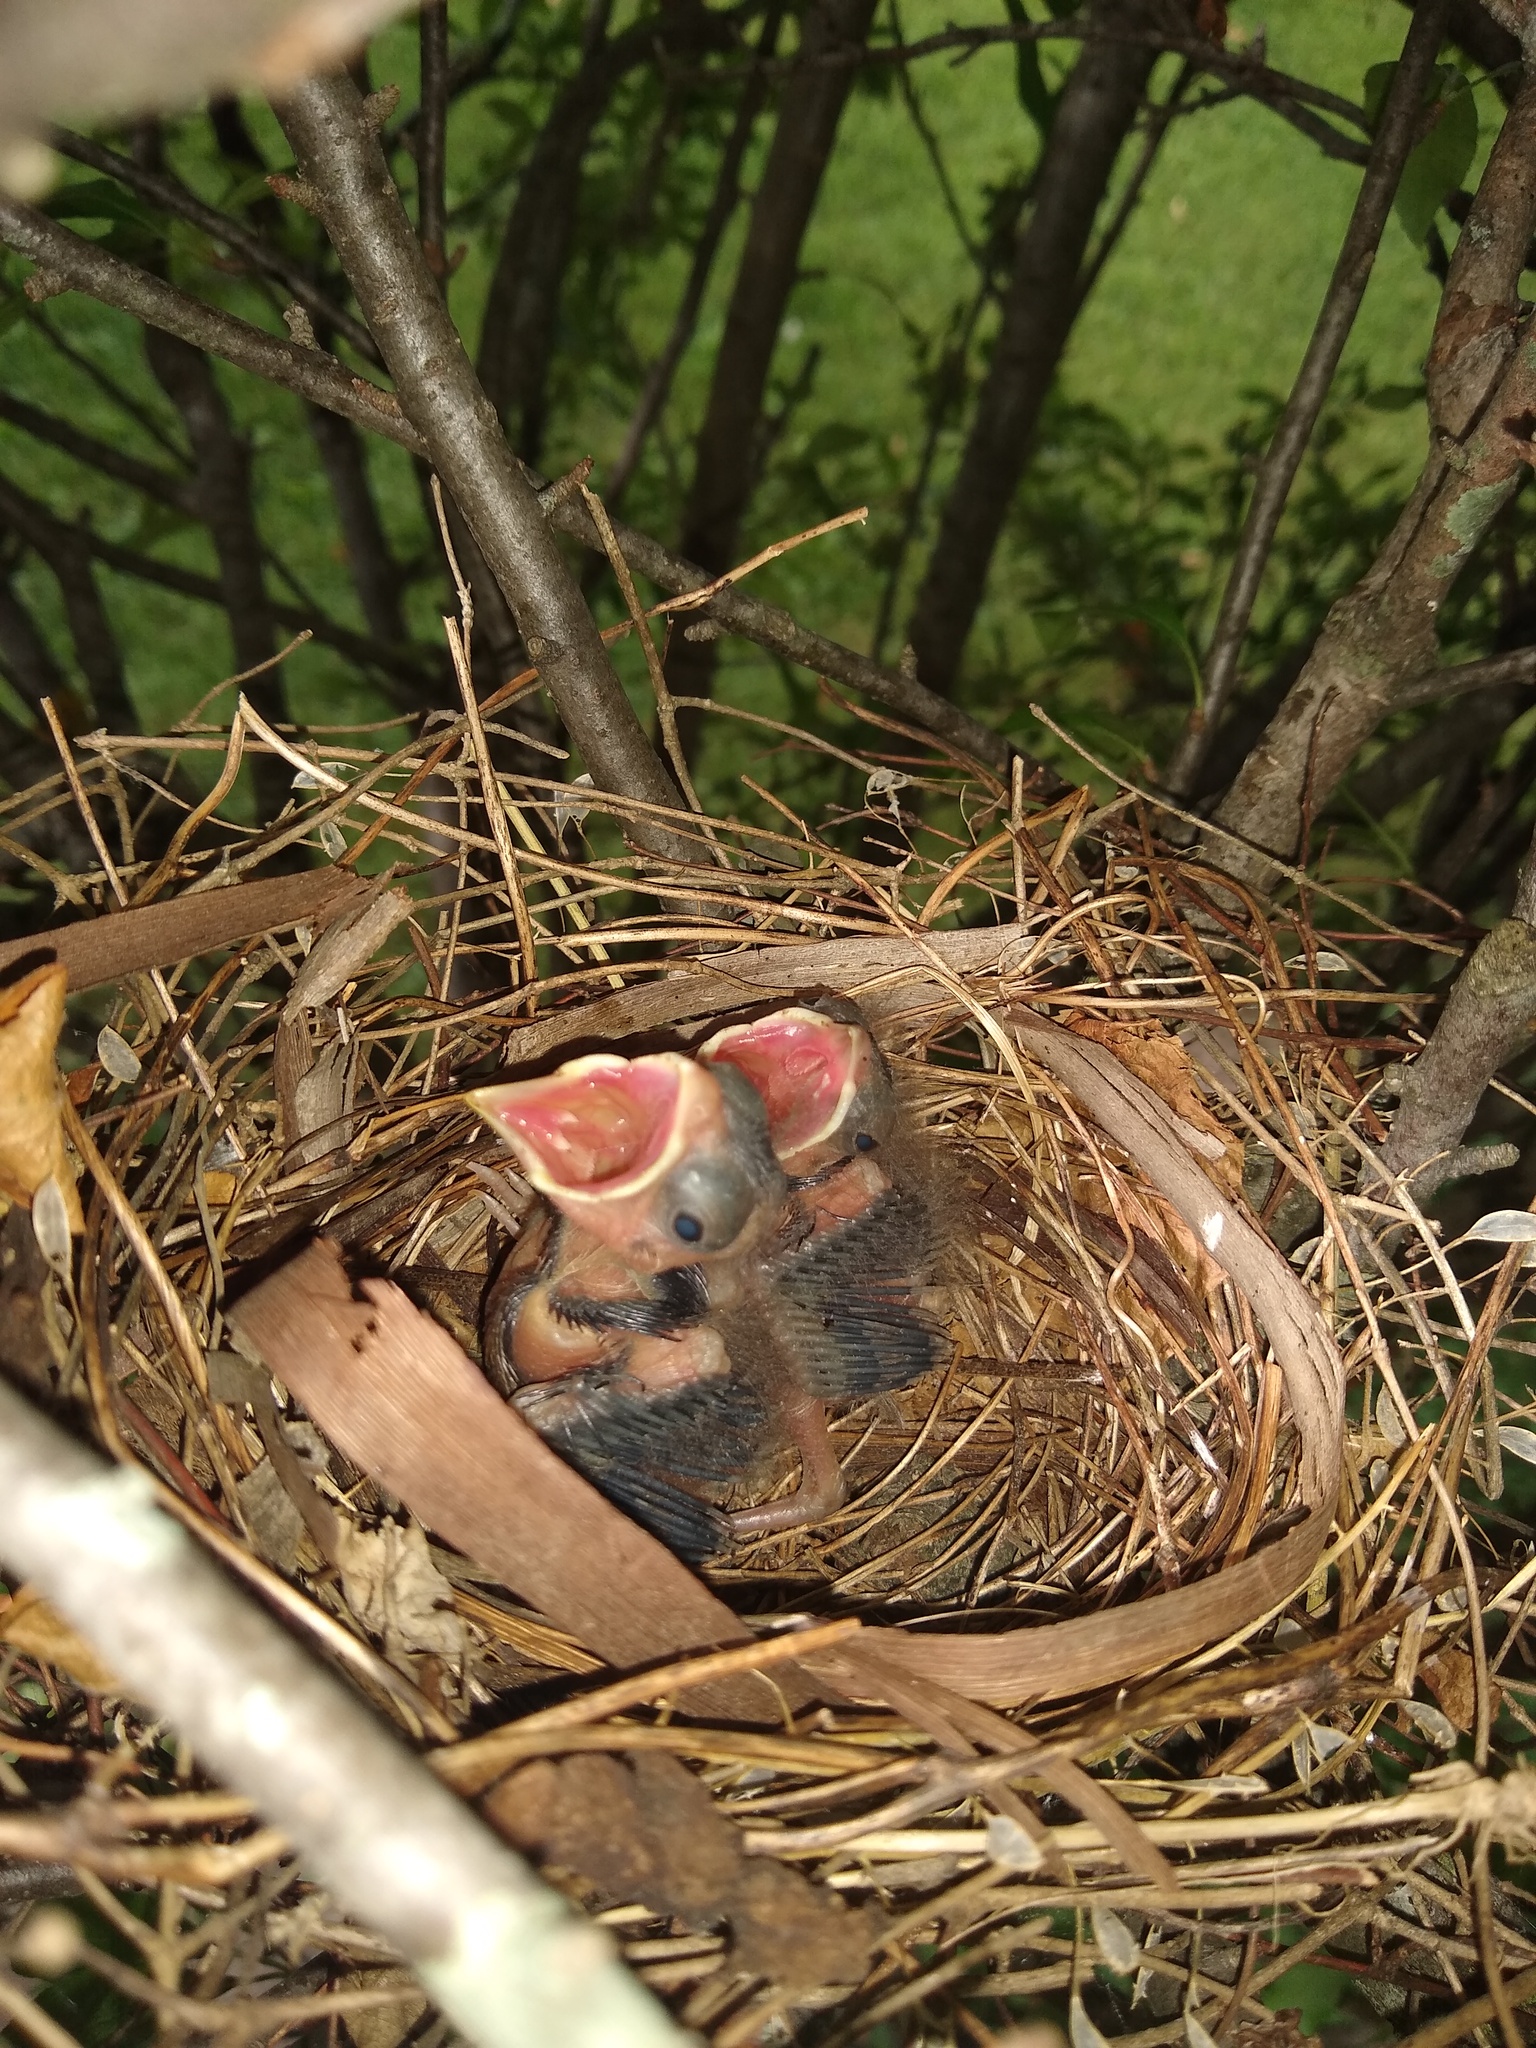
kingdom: Animalia
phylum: Chordata
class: Aves
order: Passeriformes
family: Cardinalidae
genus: Cardinalis
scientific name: Cardinalis cardinalis
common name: Northern cardinal
